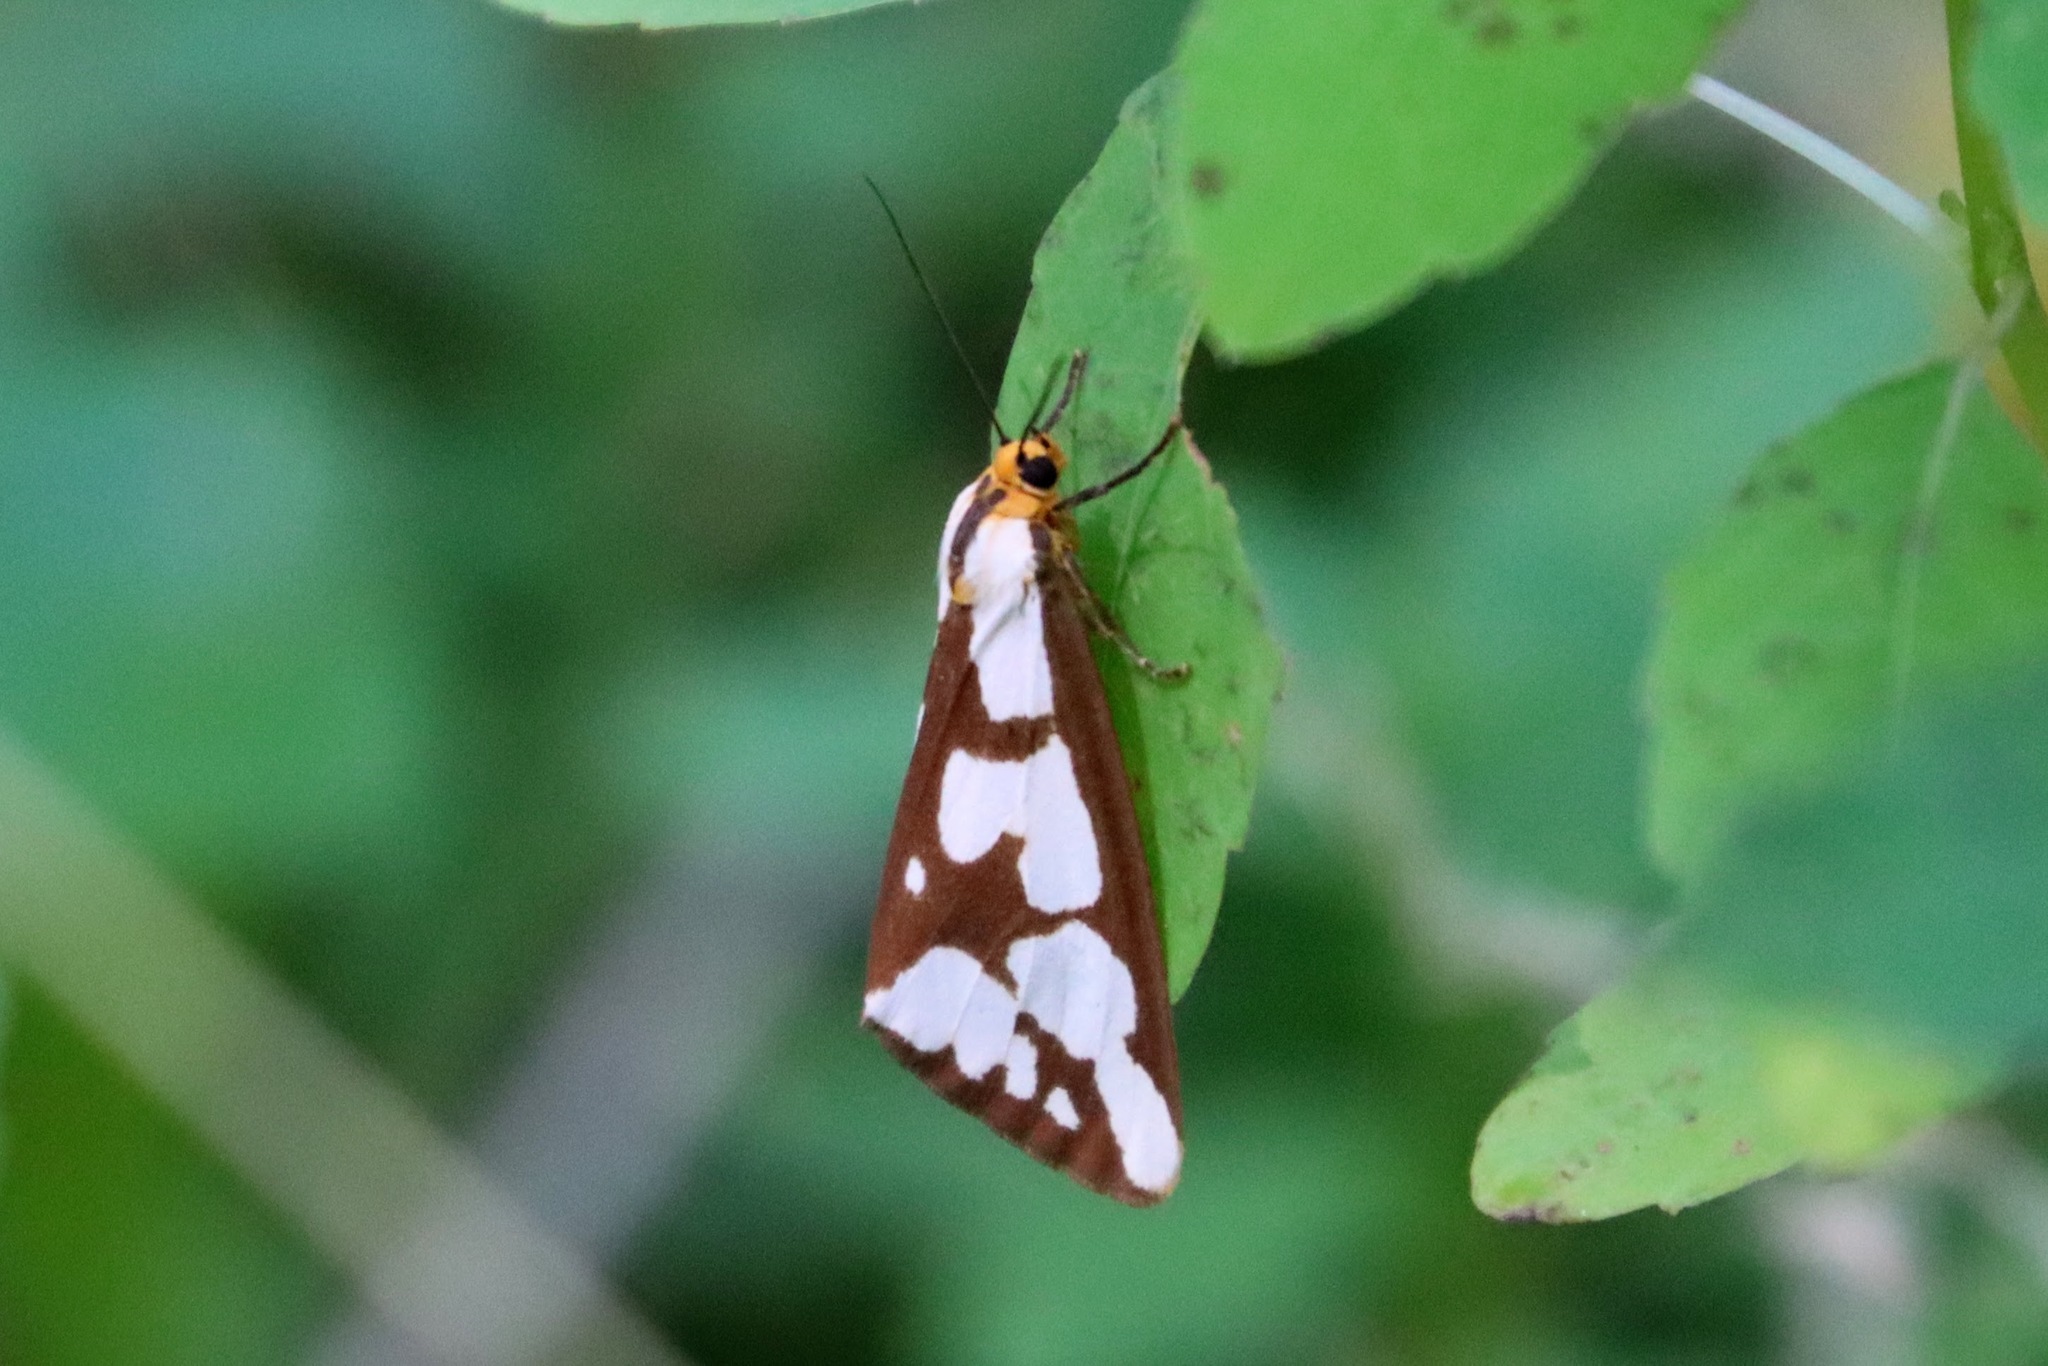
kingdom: Animalia
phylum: Arthropoda
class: Insecta
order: Lepidoptera
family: Erebidae
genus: Haploa
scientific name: Haploa confusa
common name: Confused haploa moth
